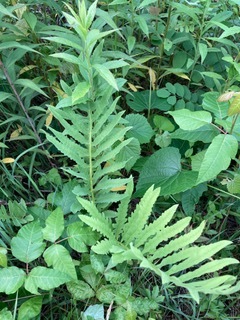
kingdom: Plantae
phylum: Tracheophyta
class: Polypodiopsida
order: Polypodiales
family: Onocleaceae
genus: Onoclea
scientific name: Onoclea sensibilis
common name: Sensitive fern
